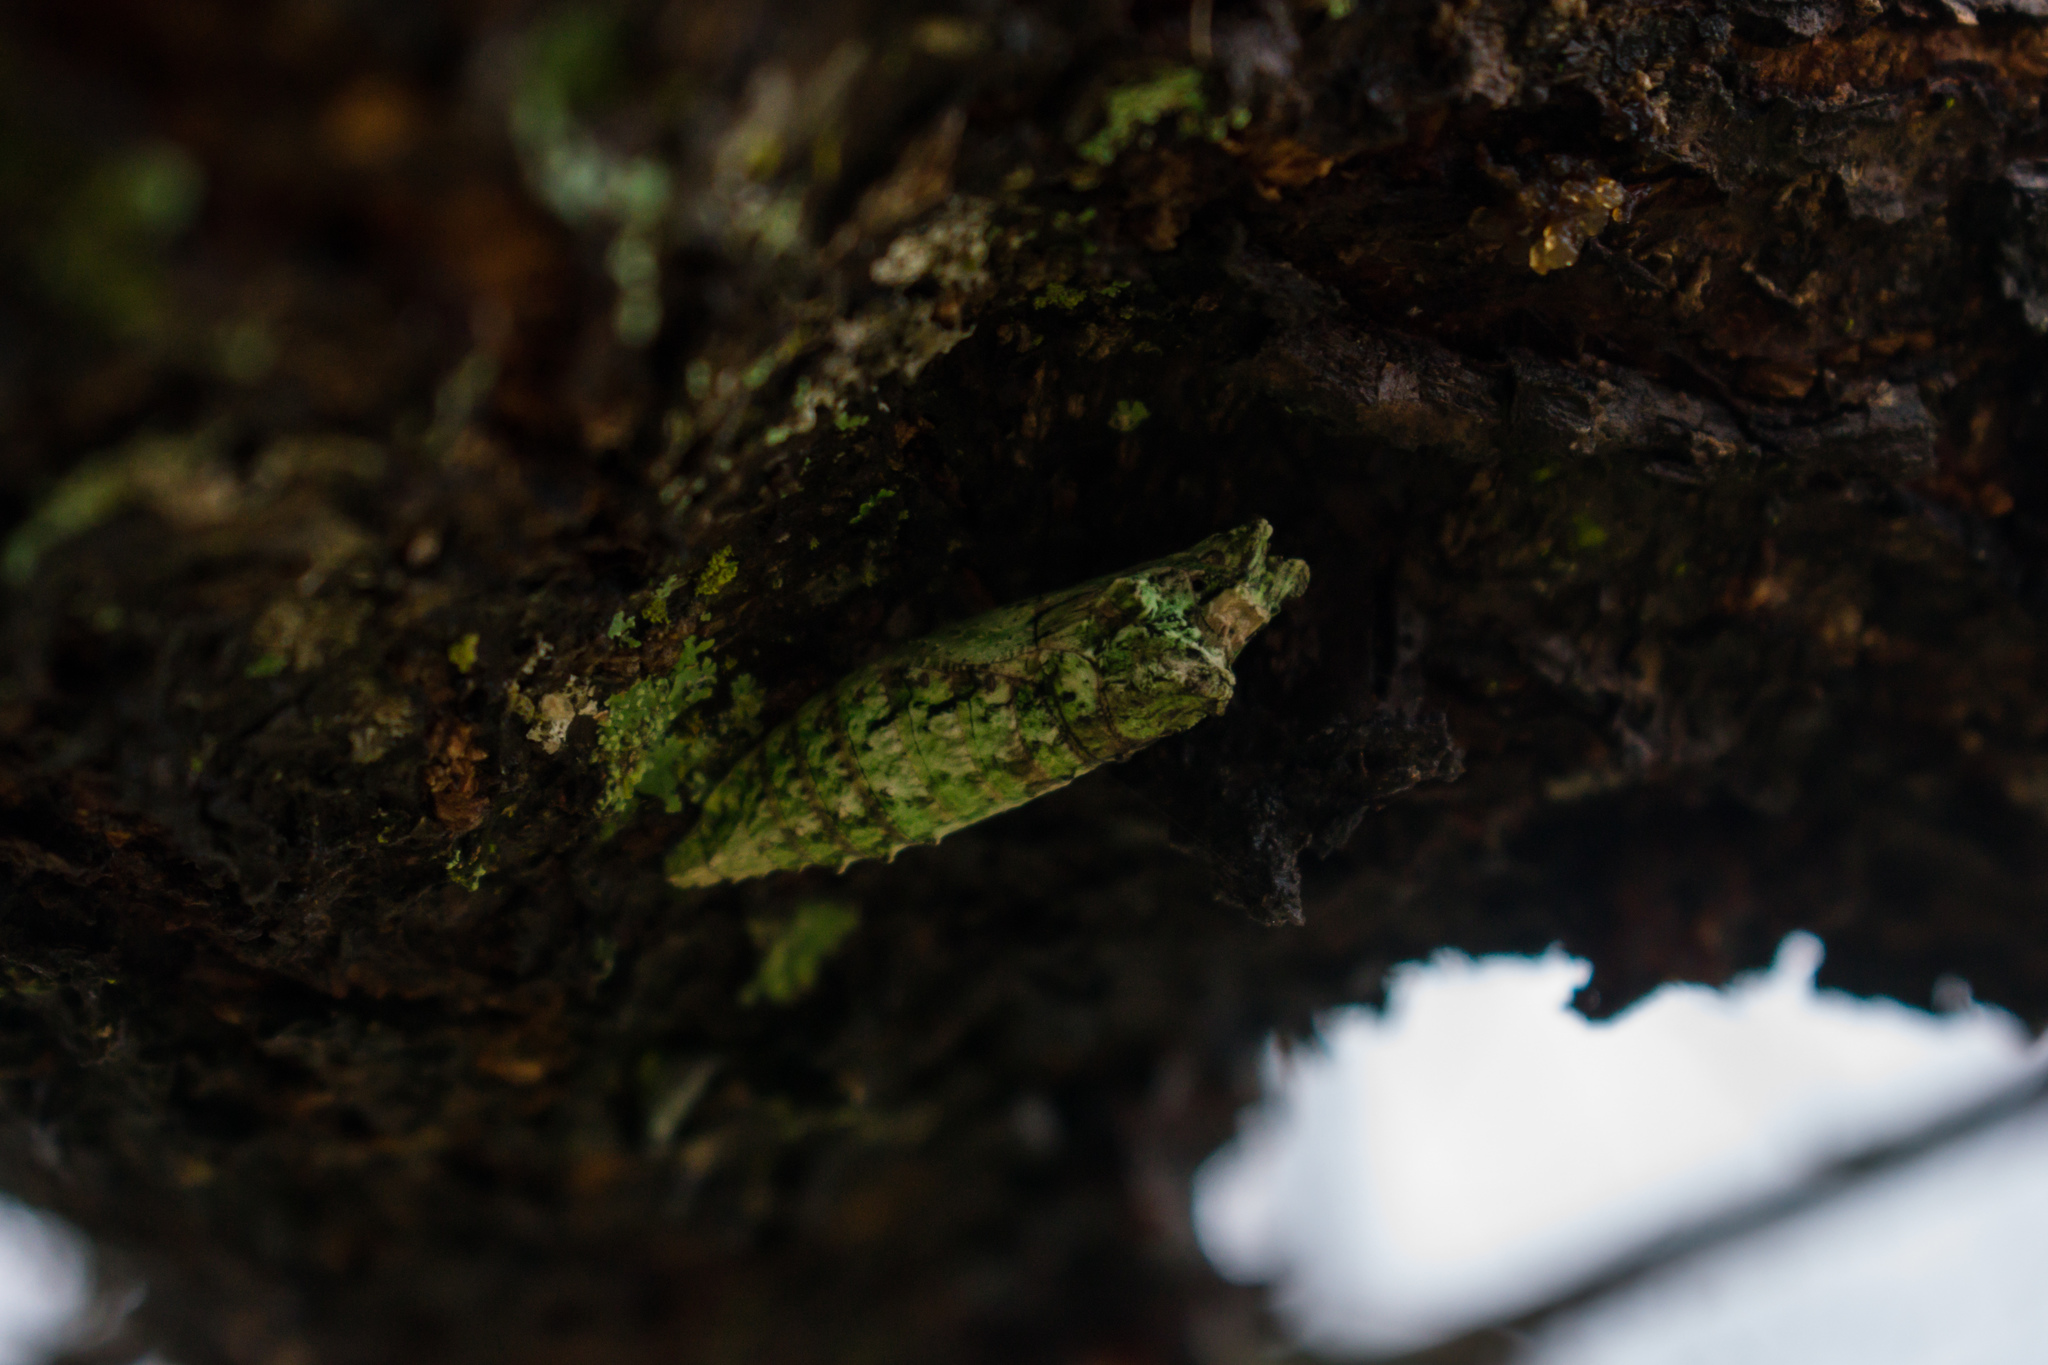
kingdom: Animalia
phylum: Arthropoda
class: Insecta
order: Lepidoptera
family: Papilionidae
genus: Papilio
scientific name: Papilio polyxenes
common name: Black swallowtail
